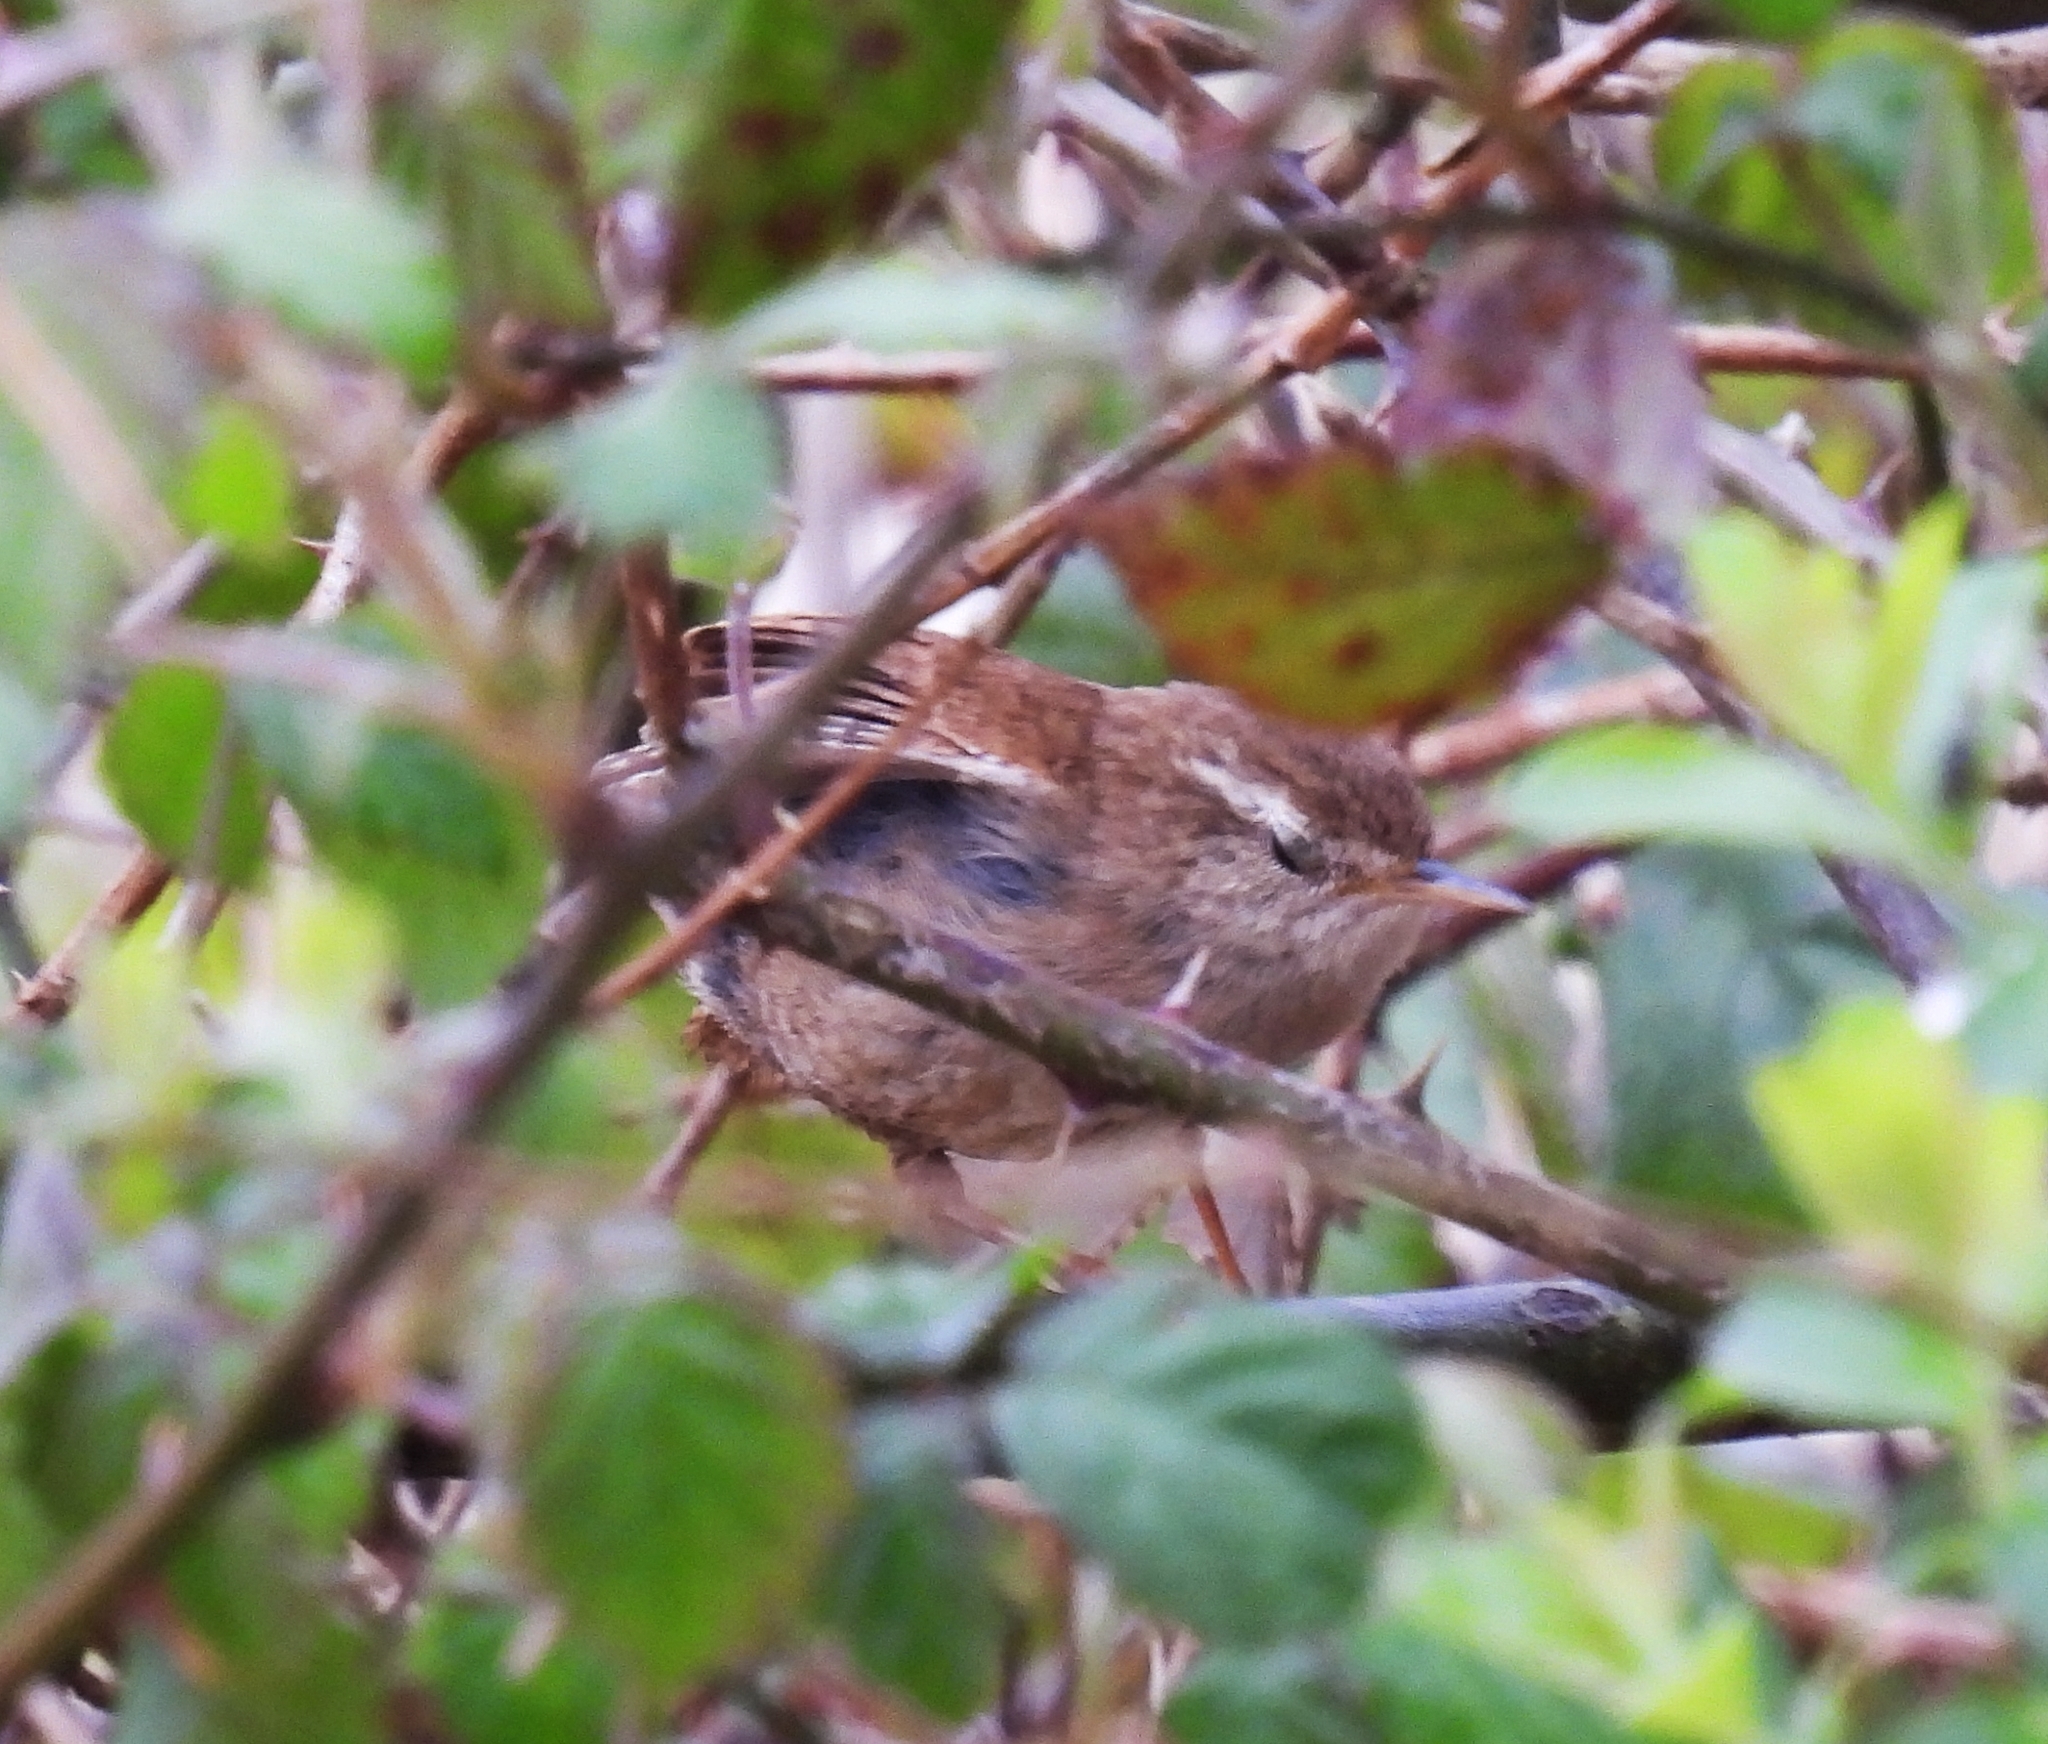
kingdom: Animalia
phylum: Chordata
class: Aves
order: Passeriformes
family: Troglodytidae
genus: Troglodytes
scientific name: Troglodytes troglodytes
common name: Eurasian wren
